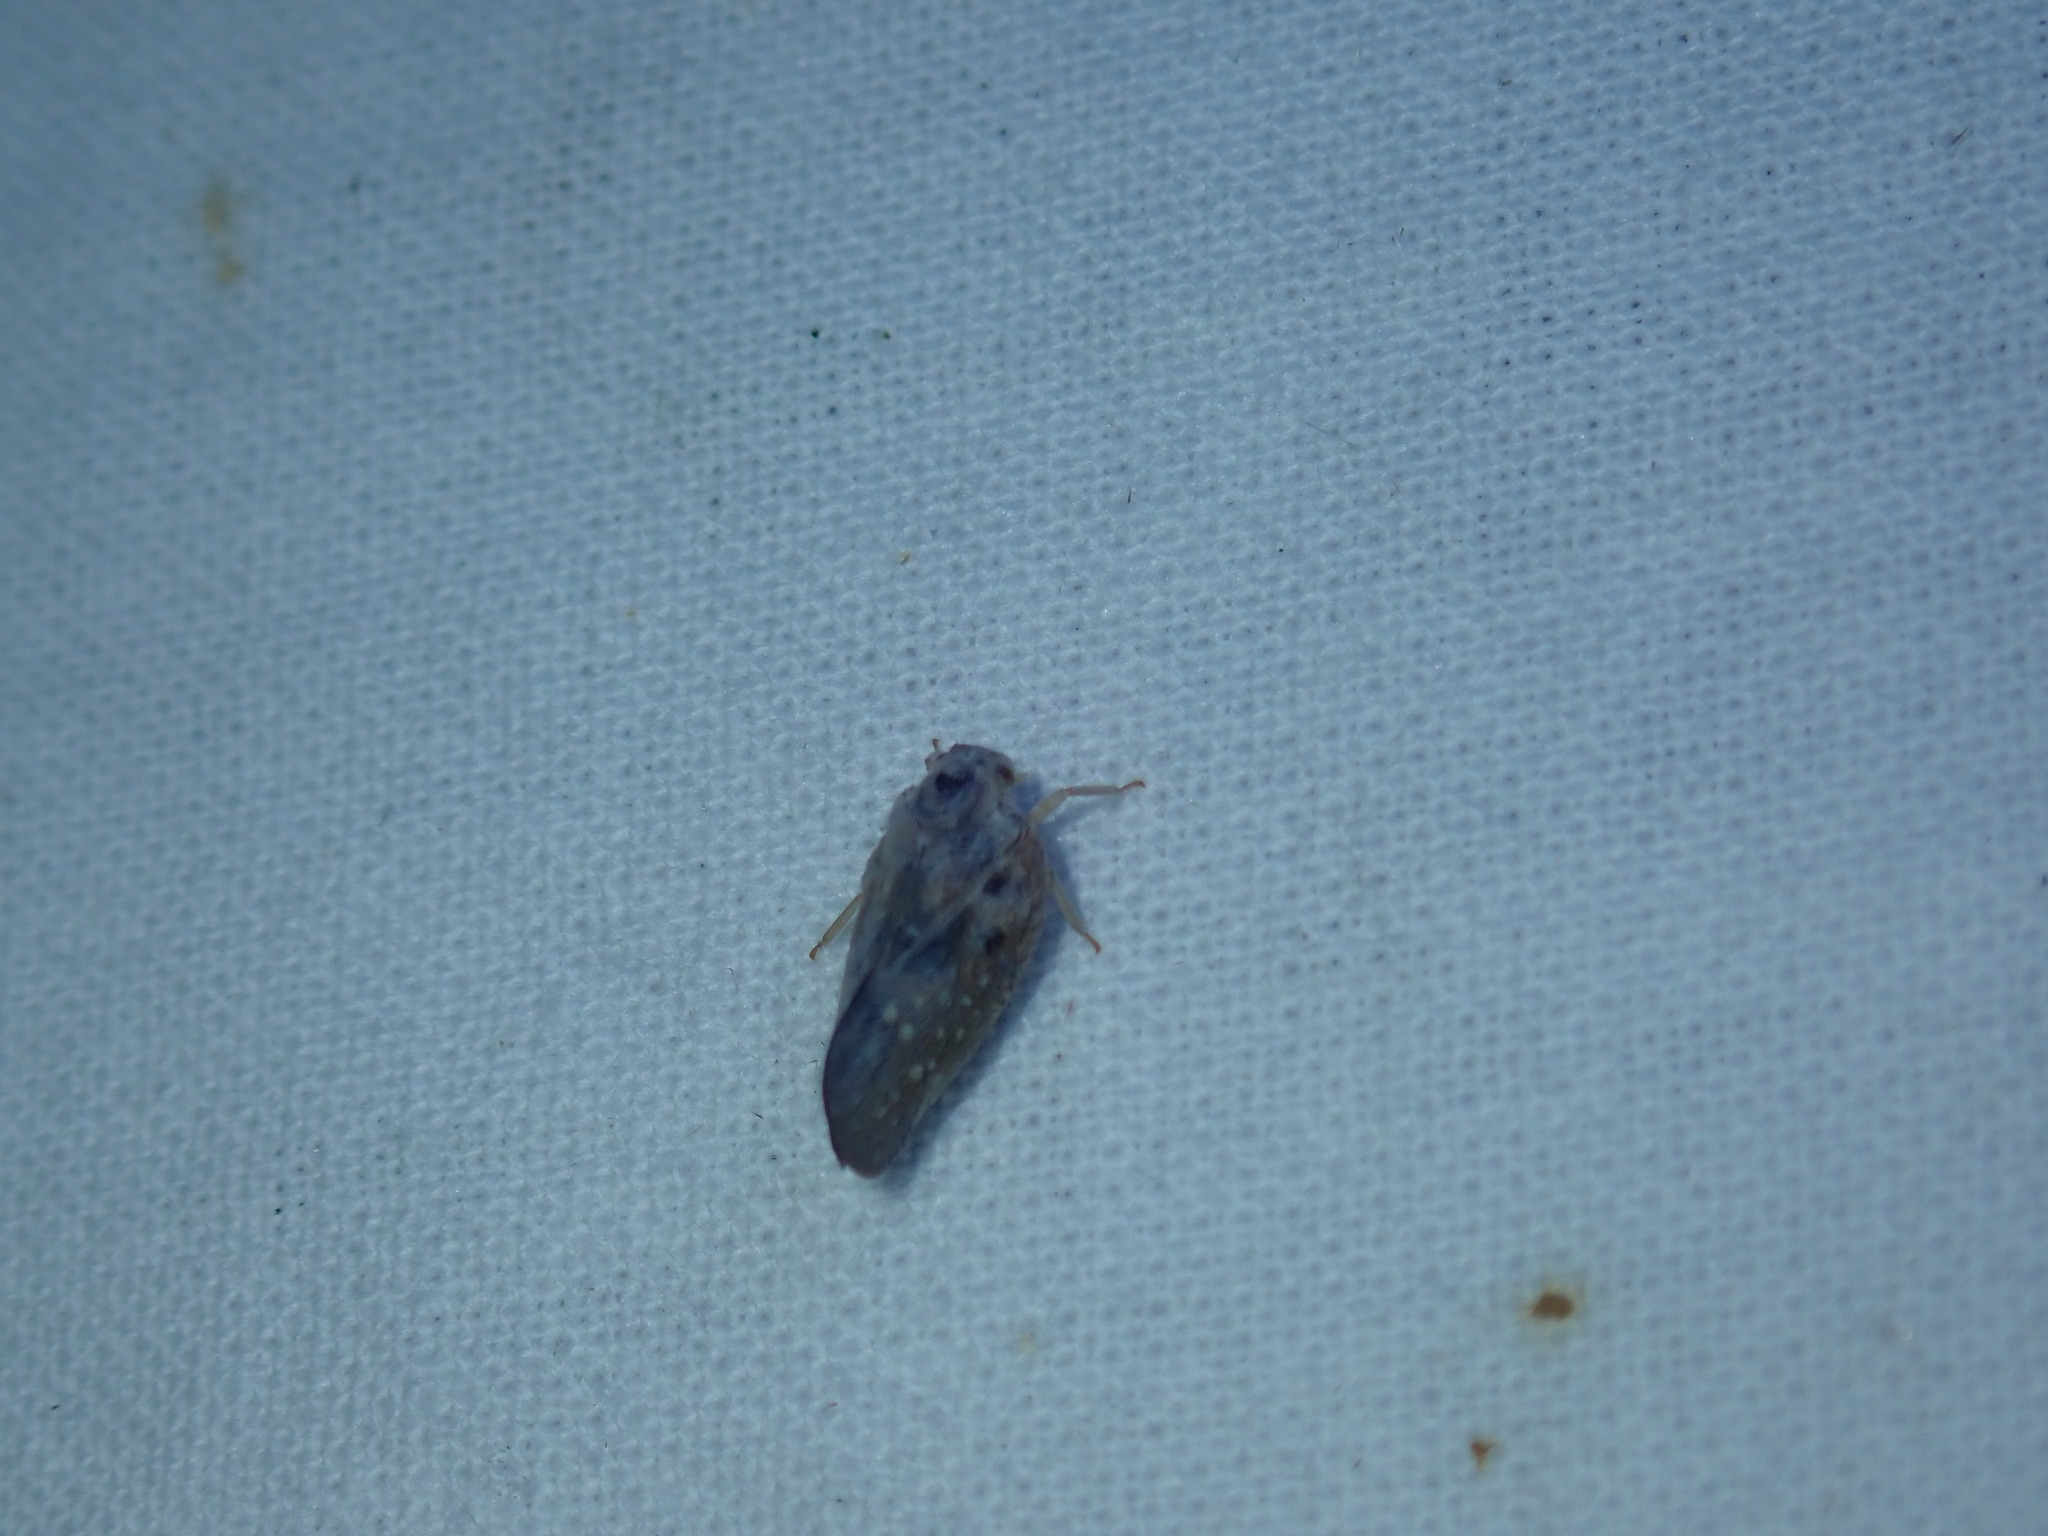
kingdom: Animalia
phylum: Arthropoda
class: Insecta
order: Hemiptera
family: Flatidae
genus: Metcalfa
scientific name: Metcalfa pruinosa
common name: Citrus flatid planthopper
